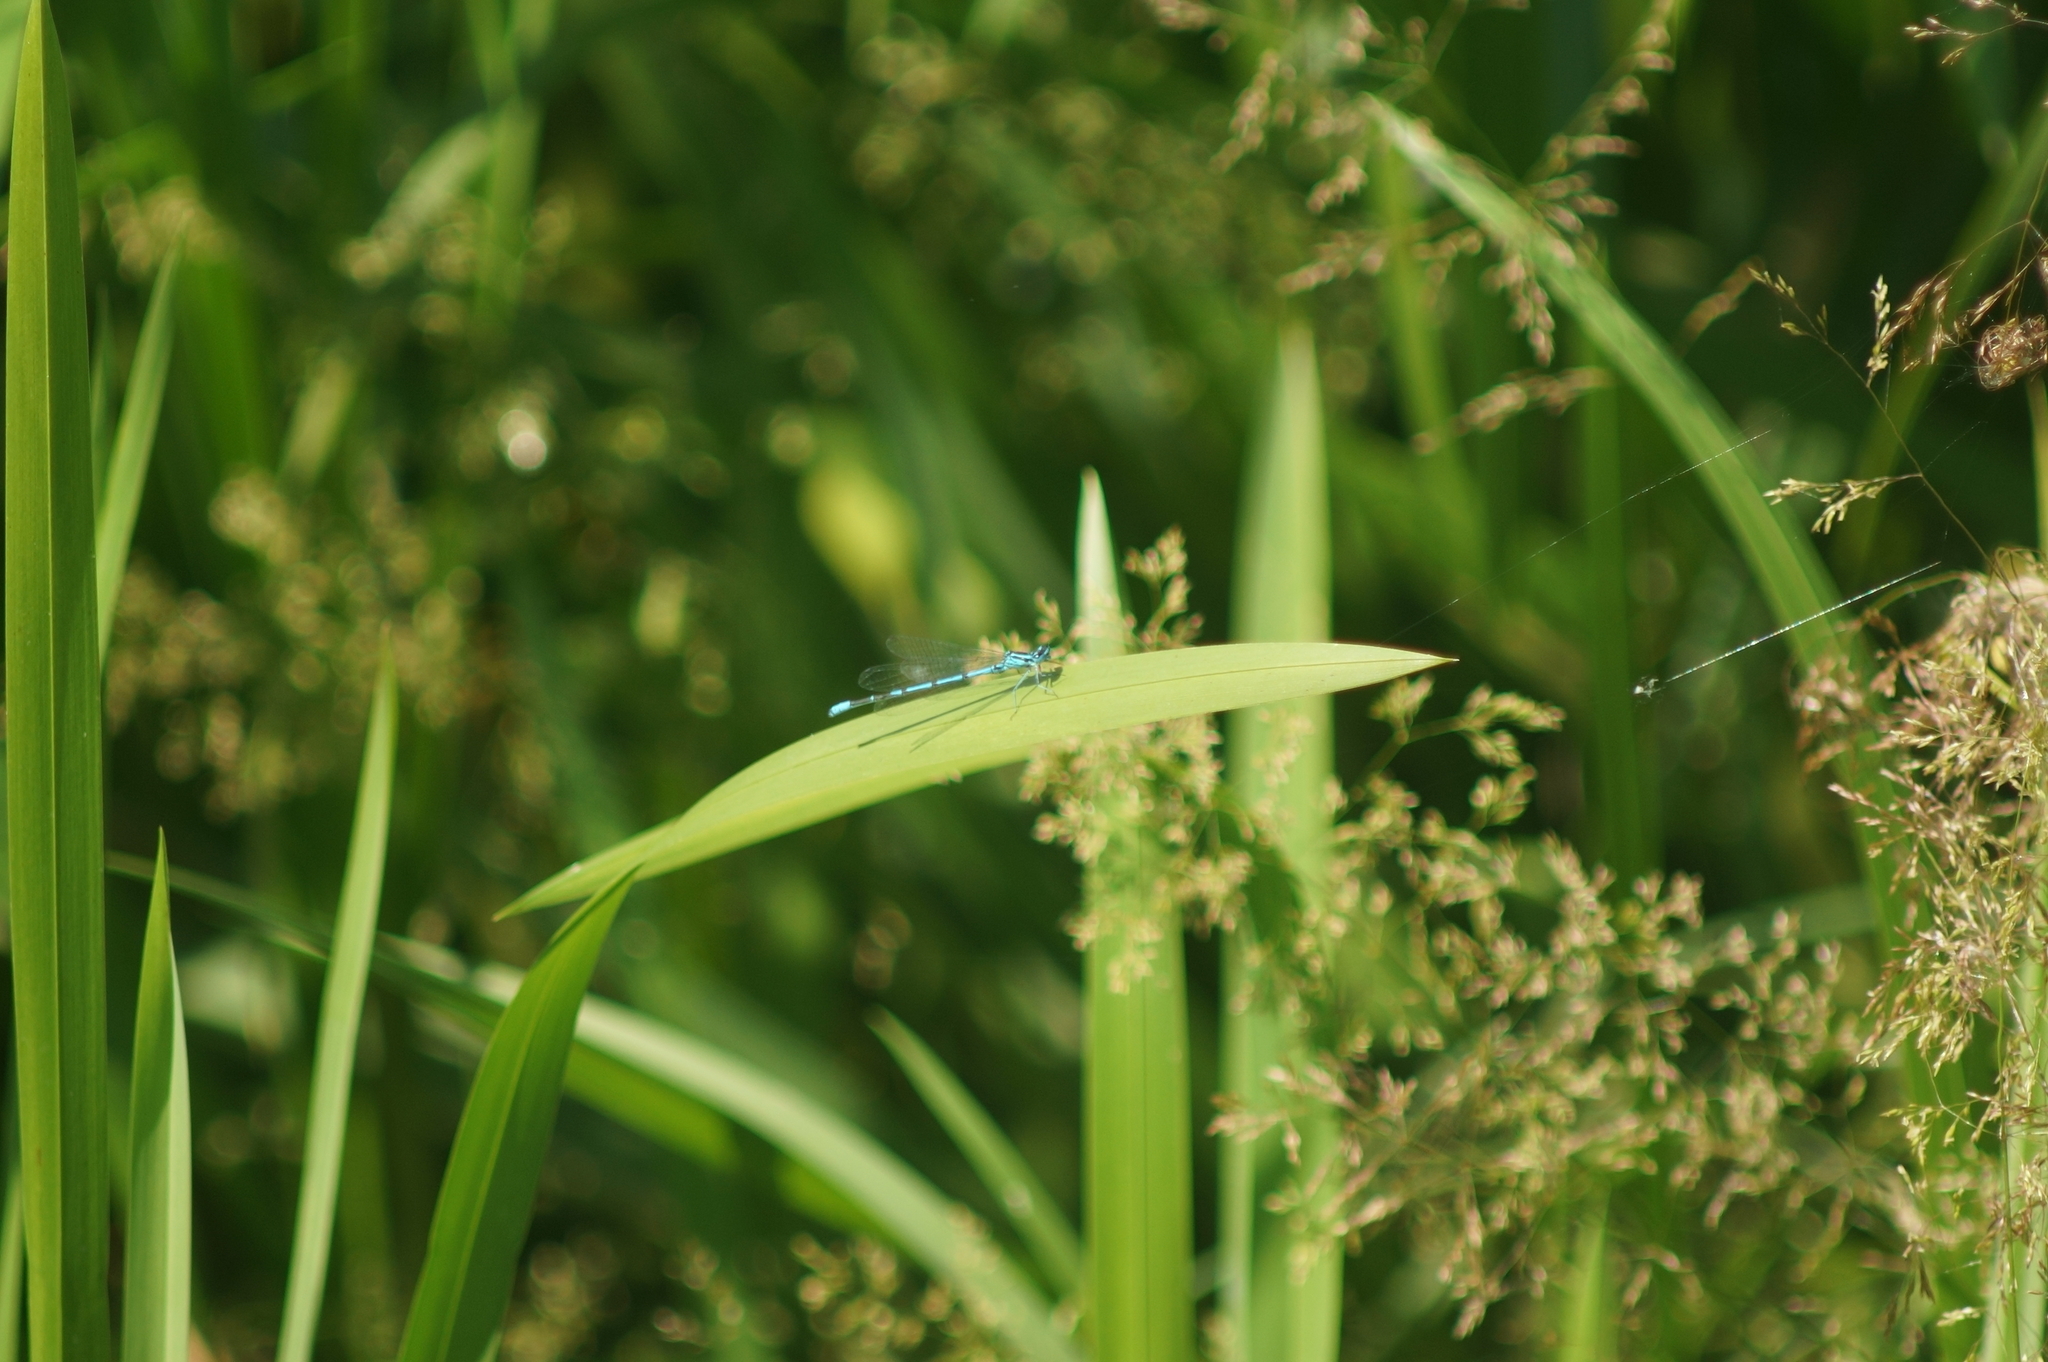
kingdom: Animalia
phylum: Arthropoda
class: Insecta
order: Odonata
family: Coenagrionidae
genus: Coenagrion
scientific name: Coenagrion puella
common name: Azure damselfly
